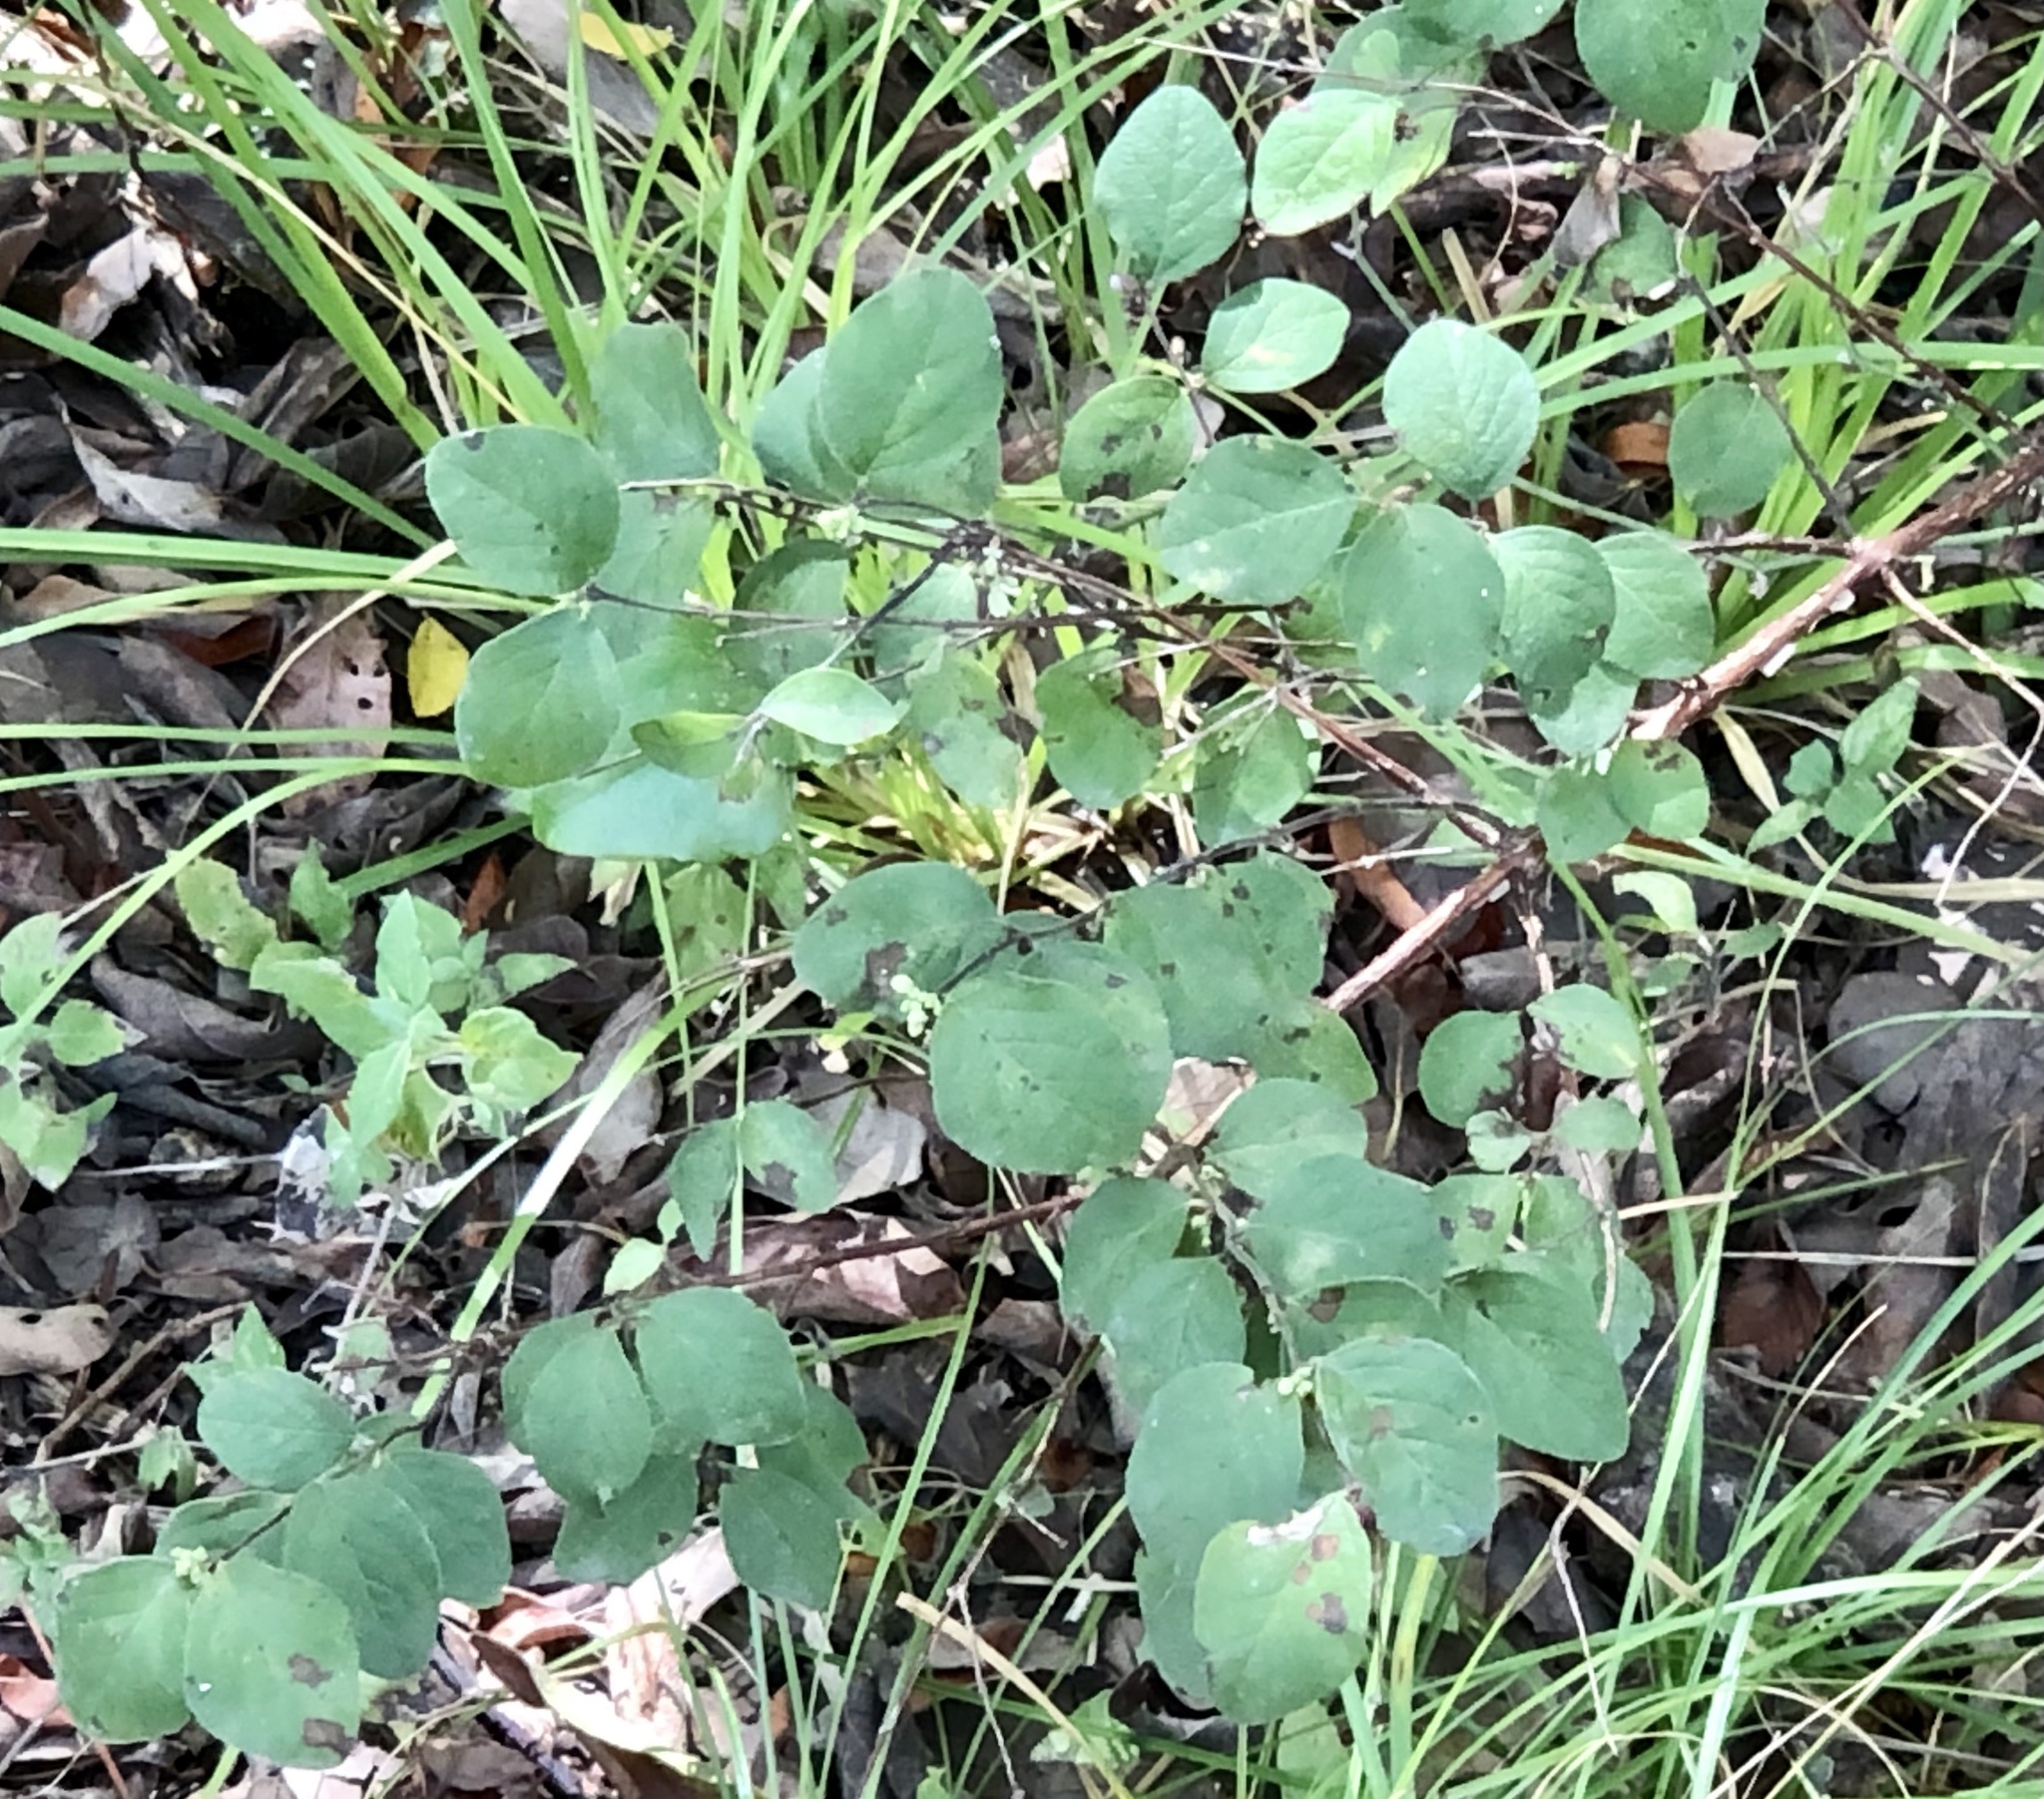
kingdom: Plantae
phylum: Tracheophyta
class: Magnoliopsida
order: Dipsacales
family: Caprifoliaceae
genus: Symphoricarpos
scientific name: Symphoricarpos orbiculatus
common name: Coralberry
